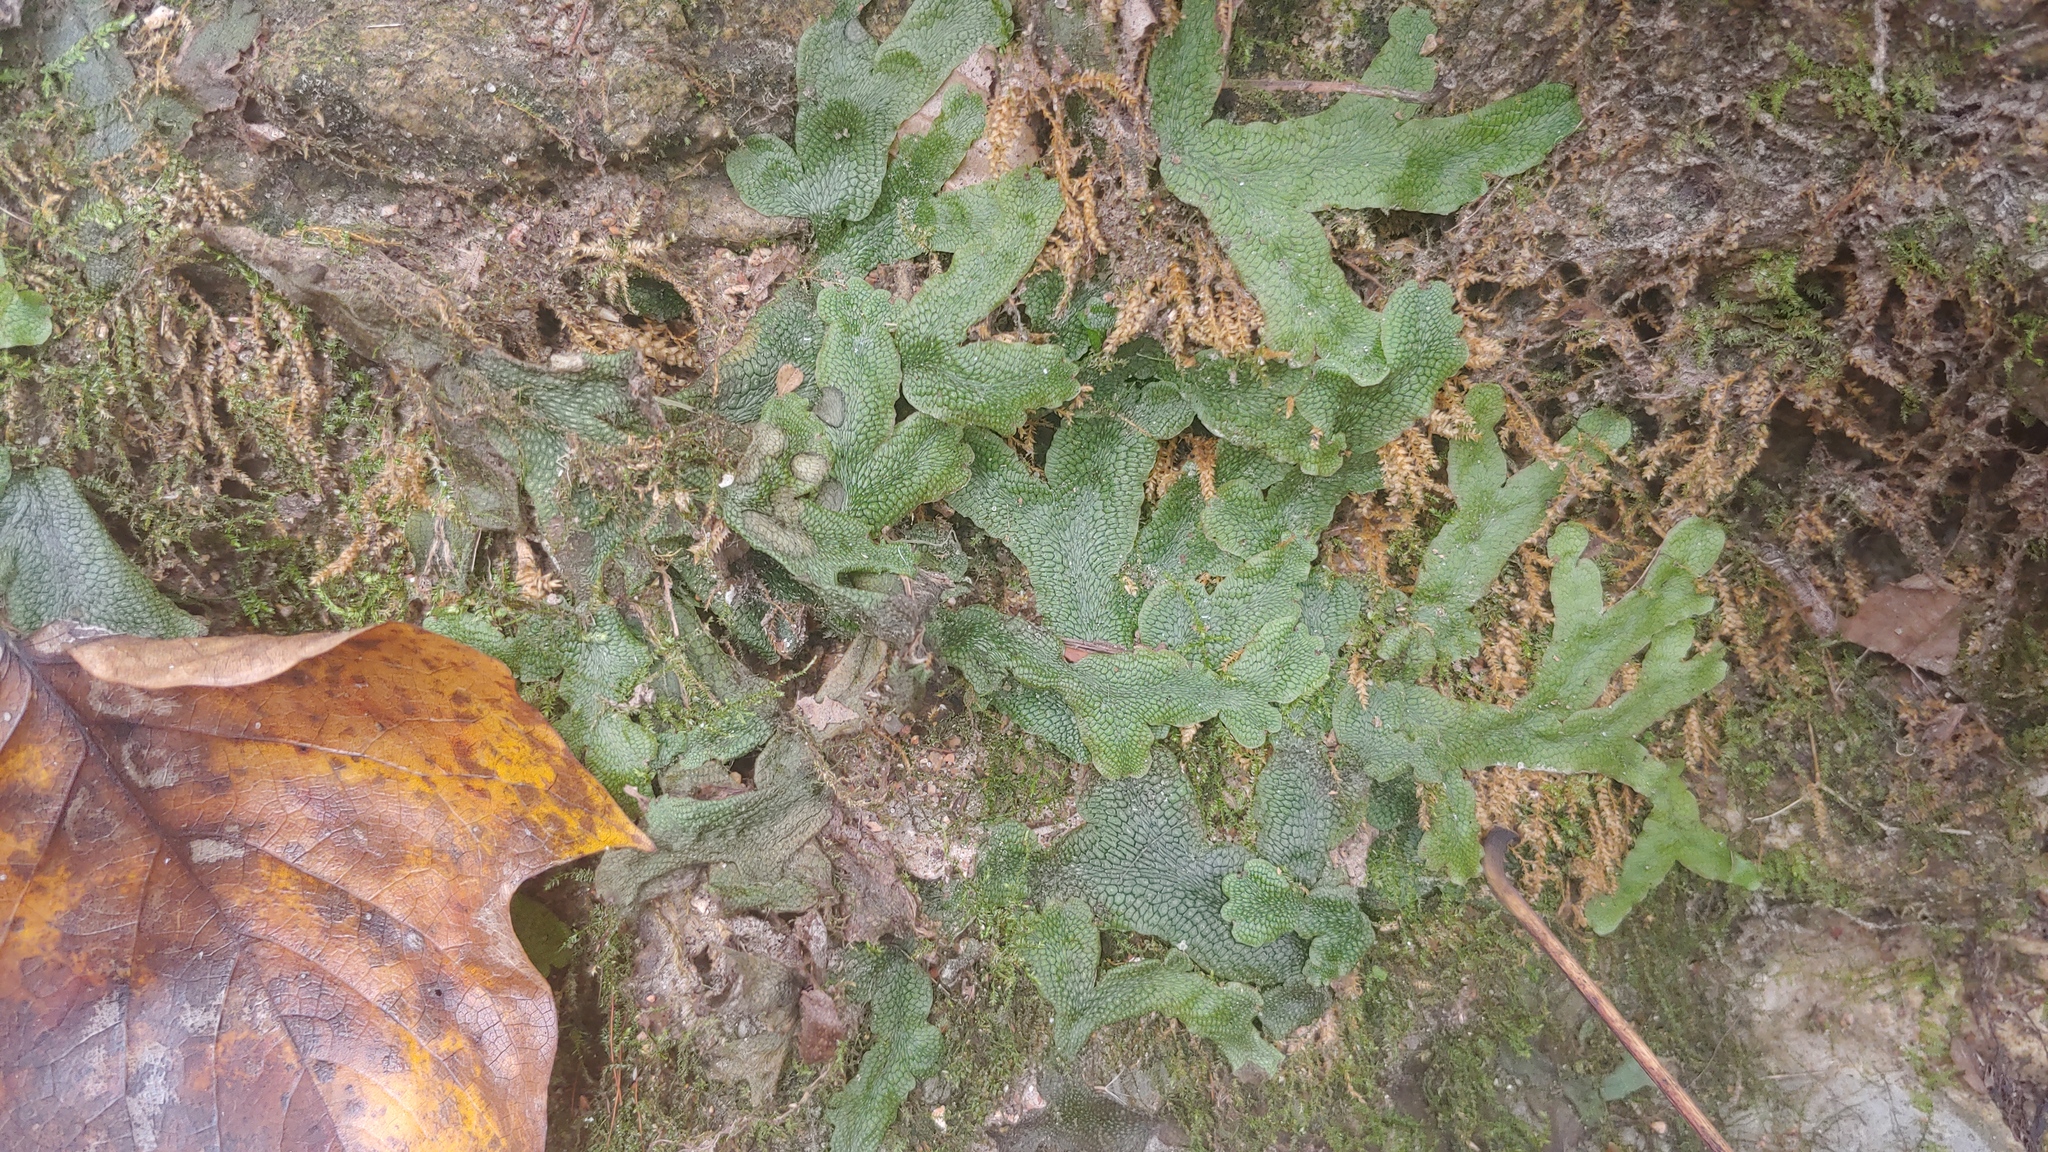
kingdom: Plantae
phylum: Marchantiophyta
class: Marchantiopsida
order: Marchantiales
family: Conocephalaceae
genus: Conocephalum
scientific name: Conocephalum salebrosum
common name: Cat-tongue liverwort
